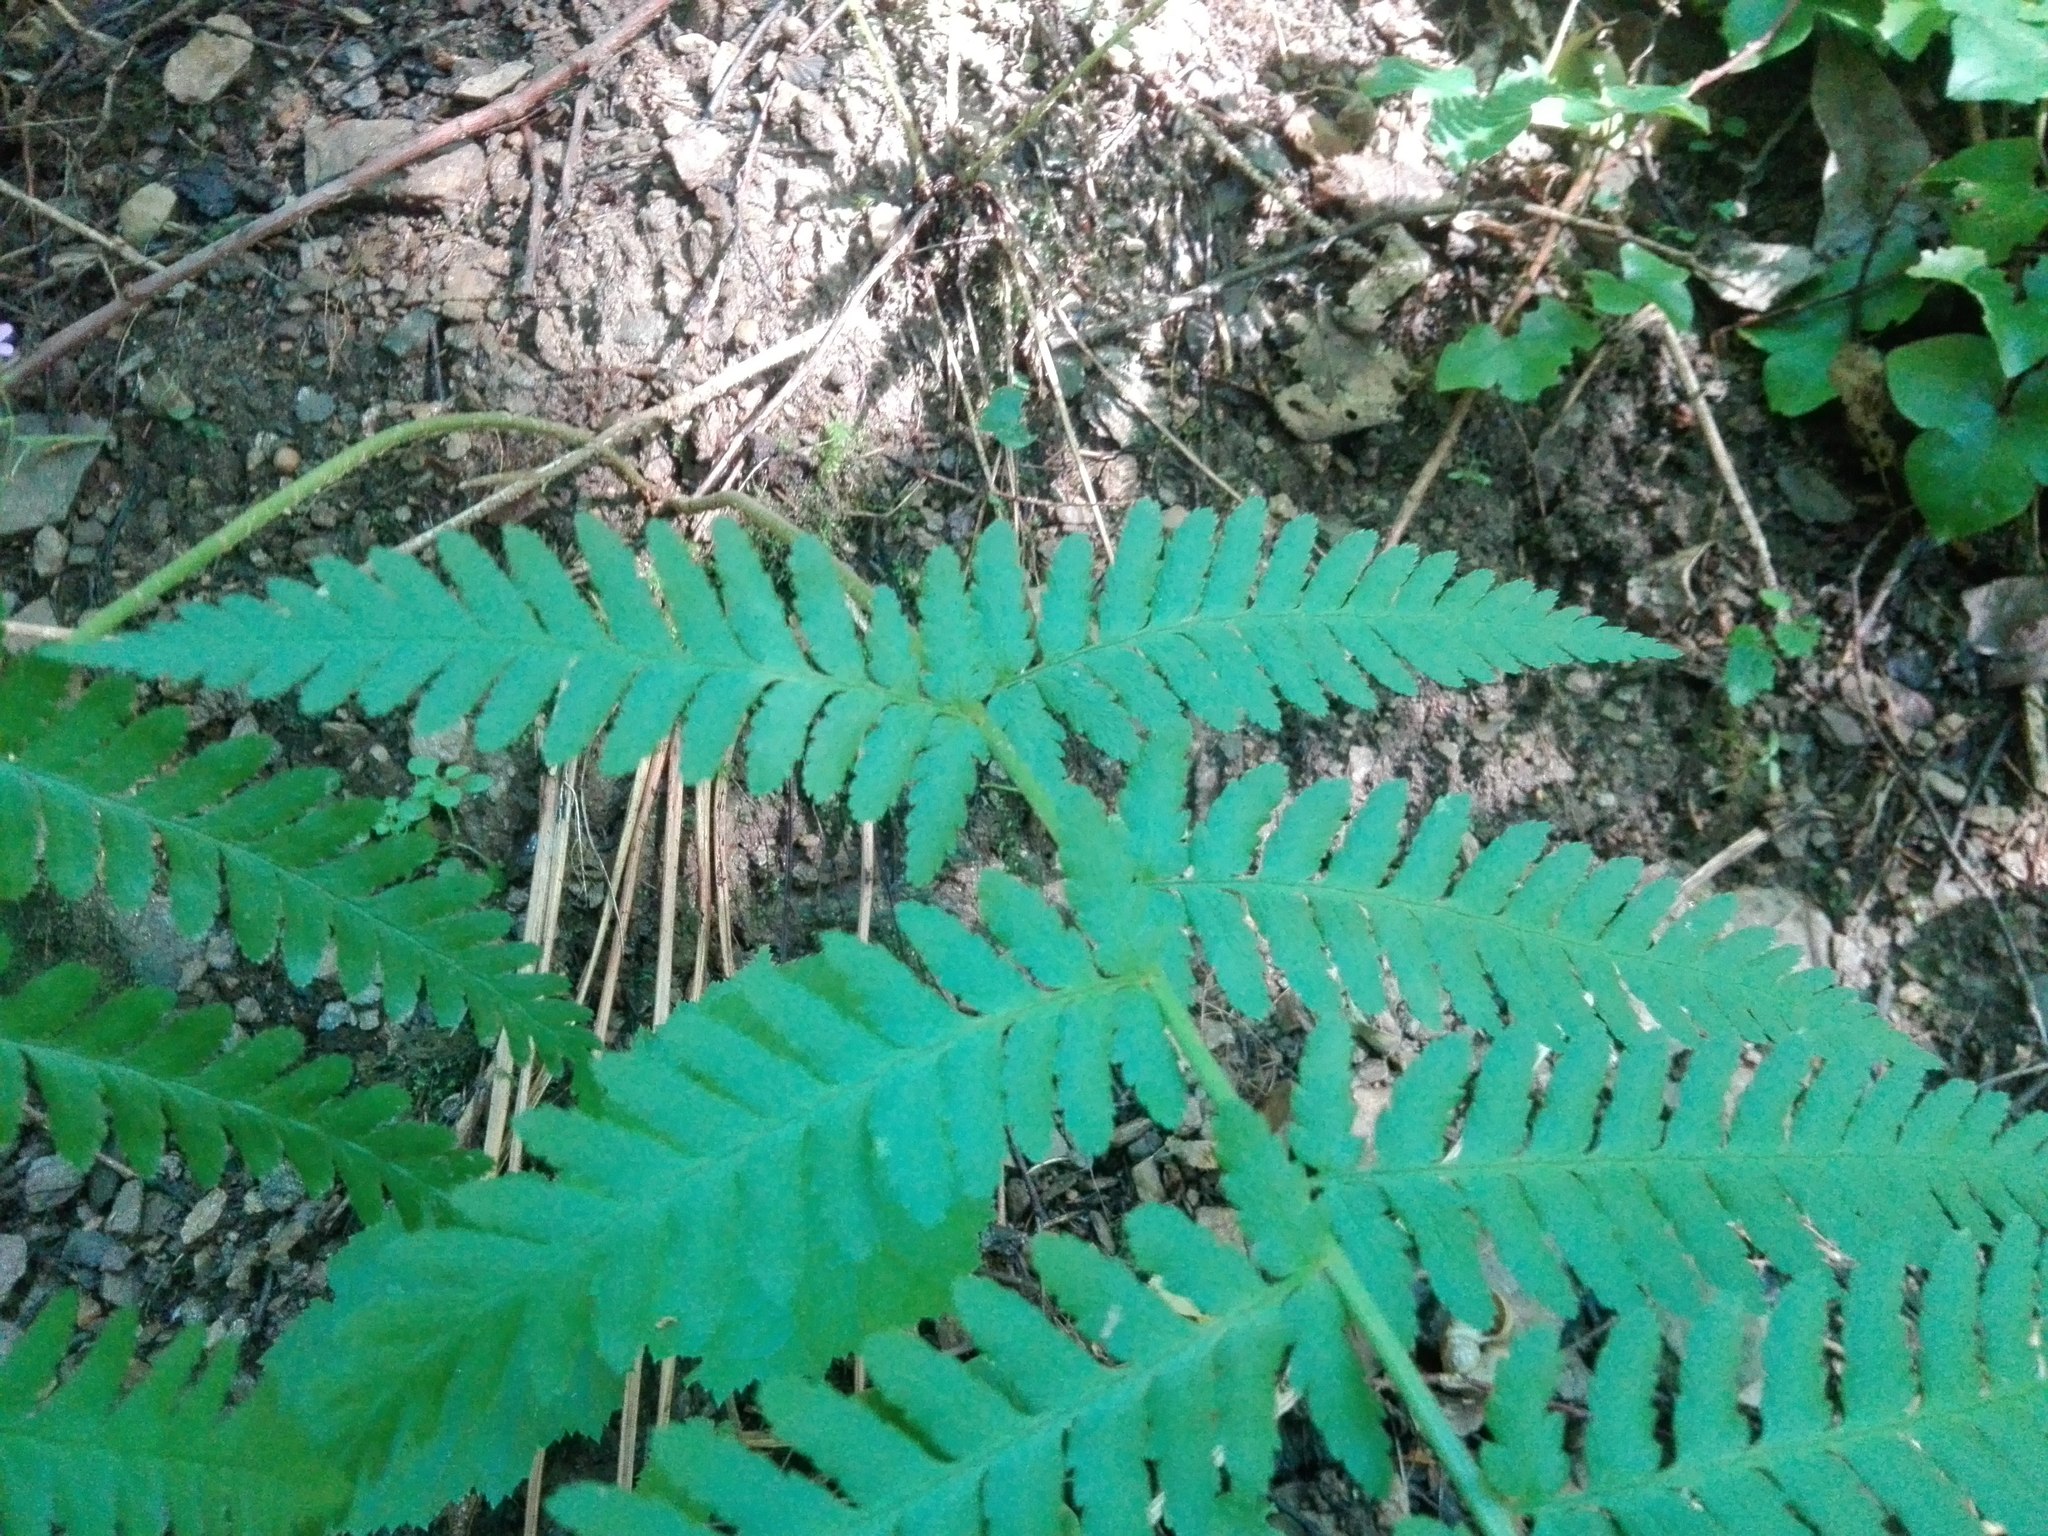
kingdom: Plantae
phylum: Tracheophyta
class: Polypodiopsida
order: Polypodiales
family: Dryopteridaceae
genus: Dryopteris
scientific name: Dryopteris filix-mas
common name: Male fern
